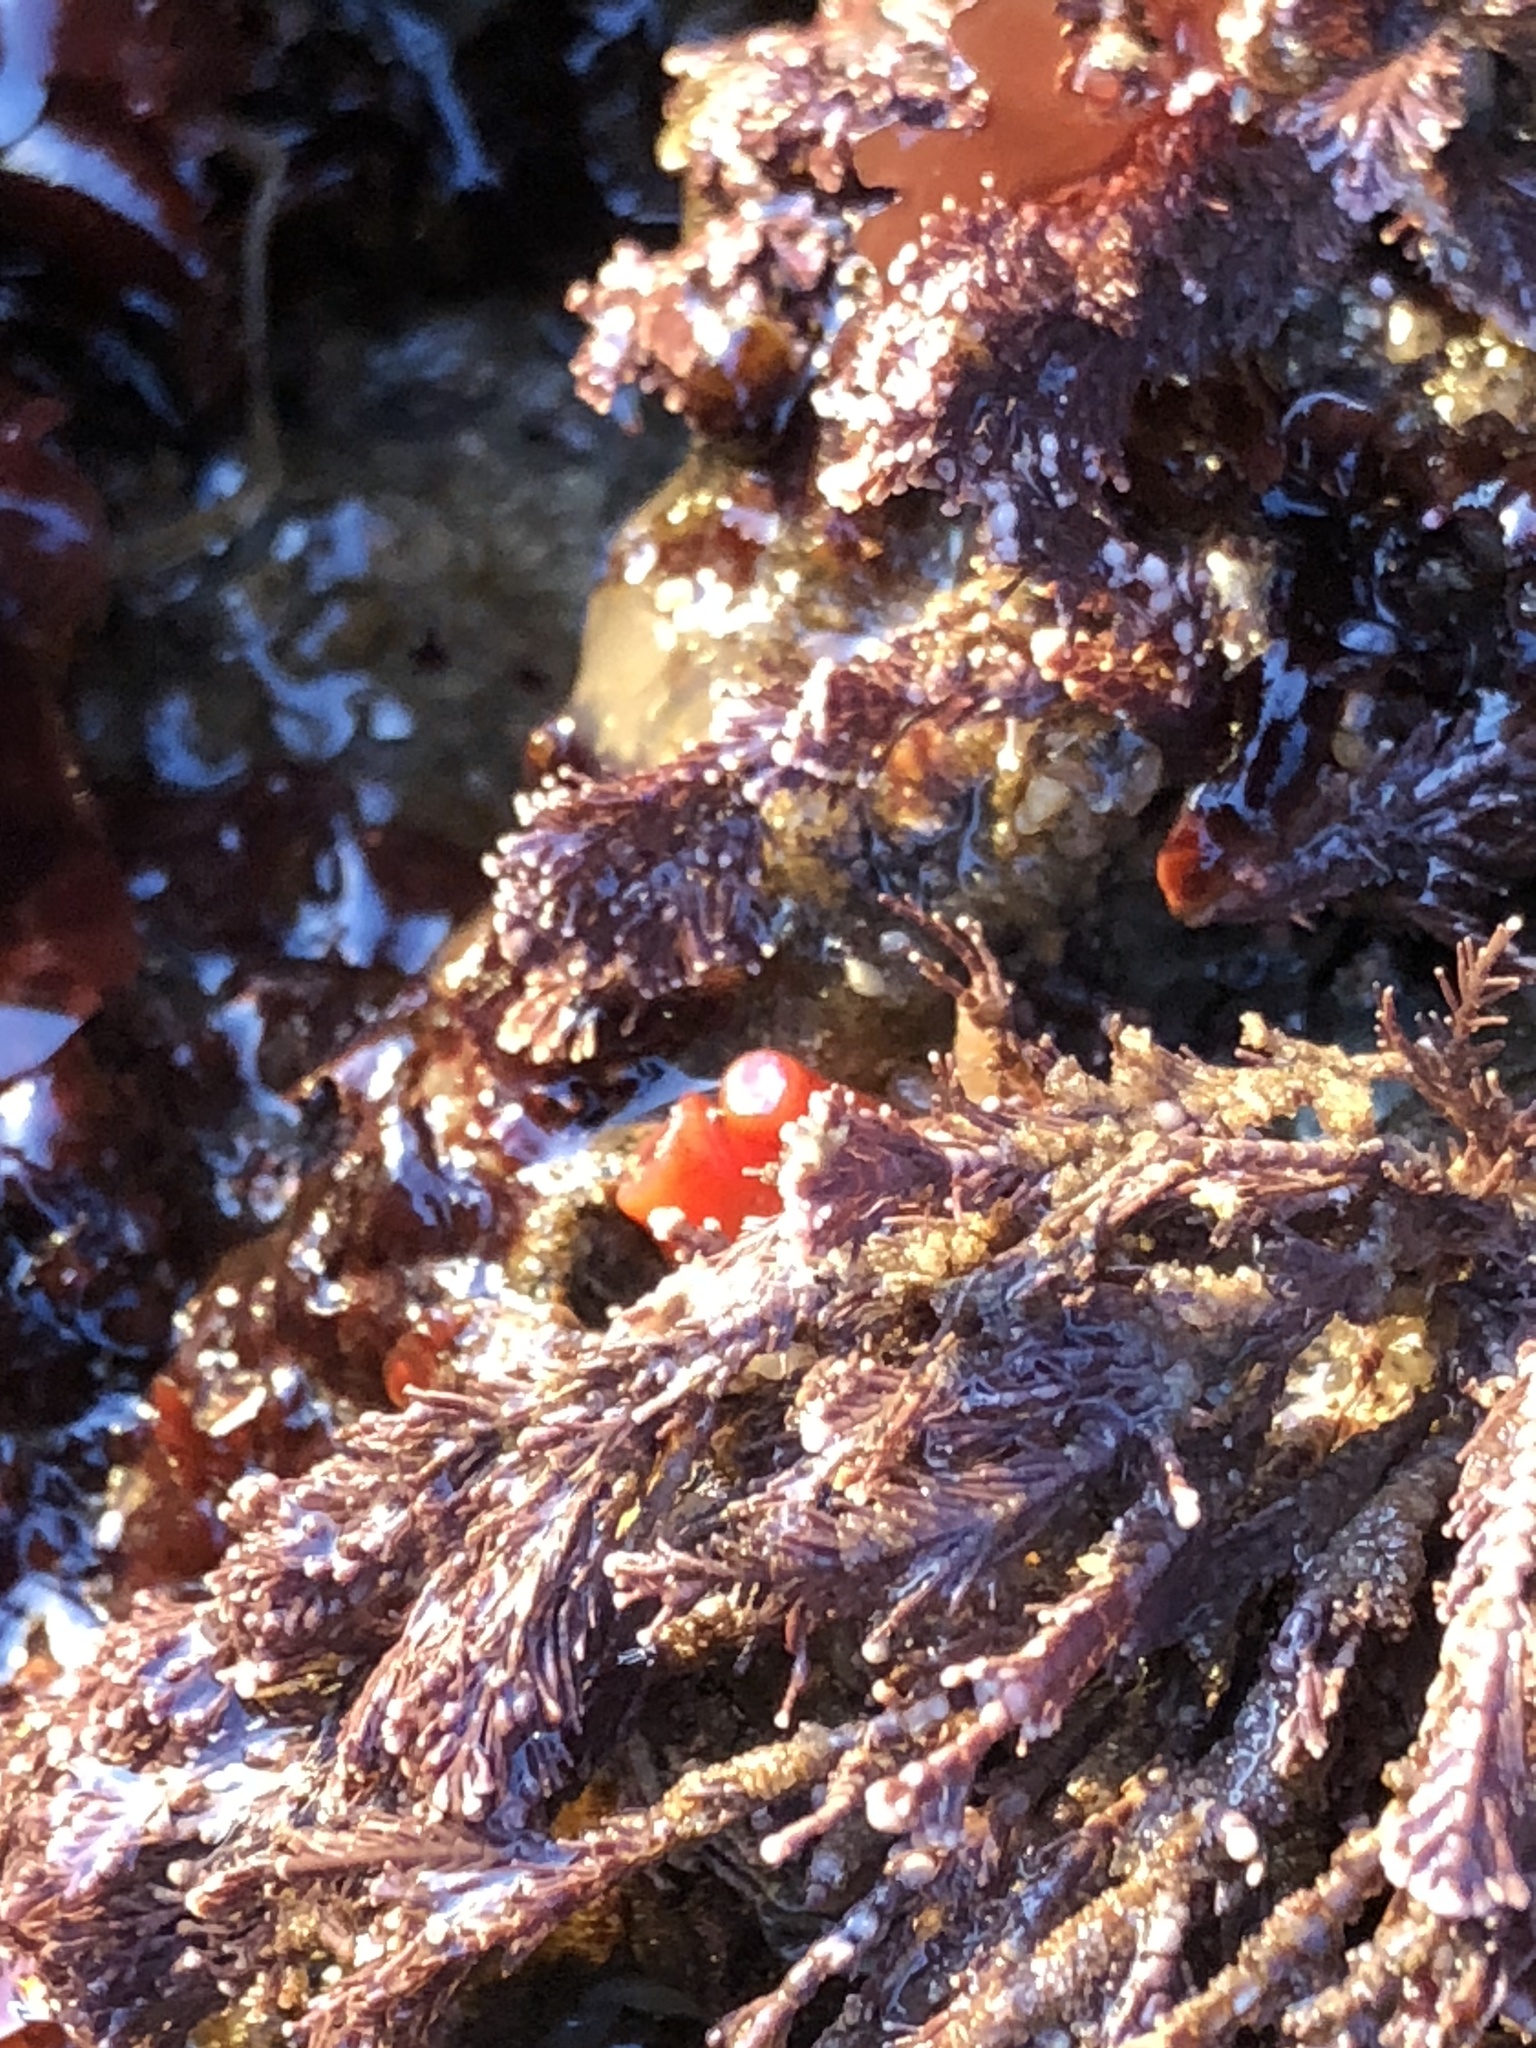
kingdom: Animalia
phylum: Mollusca
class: Bivalvia
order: Adapedonta
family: Hiatellidae
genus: Hiatella
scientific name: Hiatella arctica
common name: Arctic hiatella
